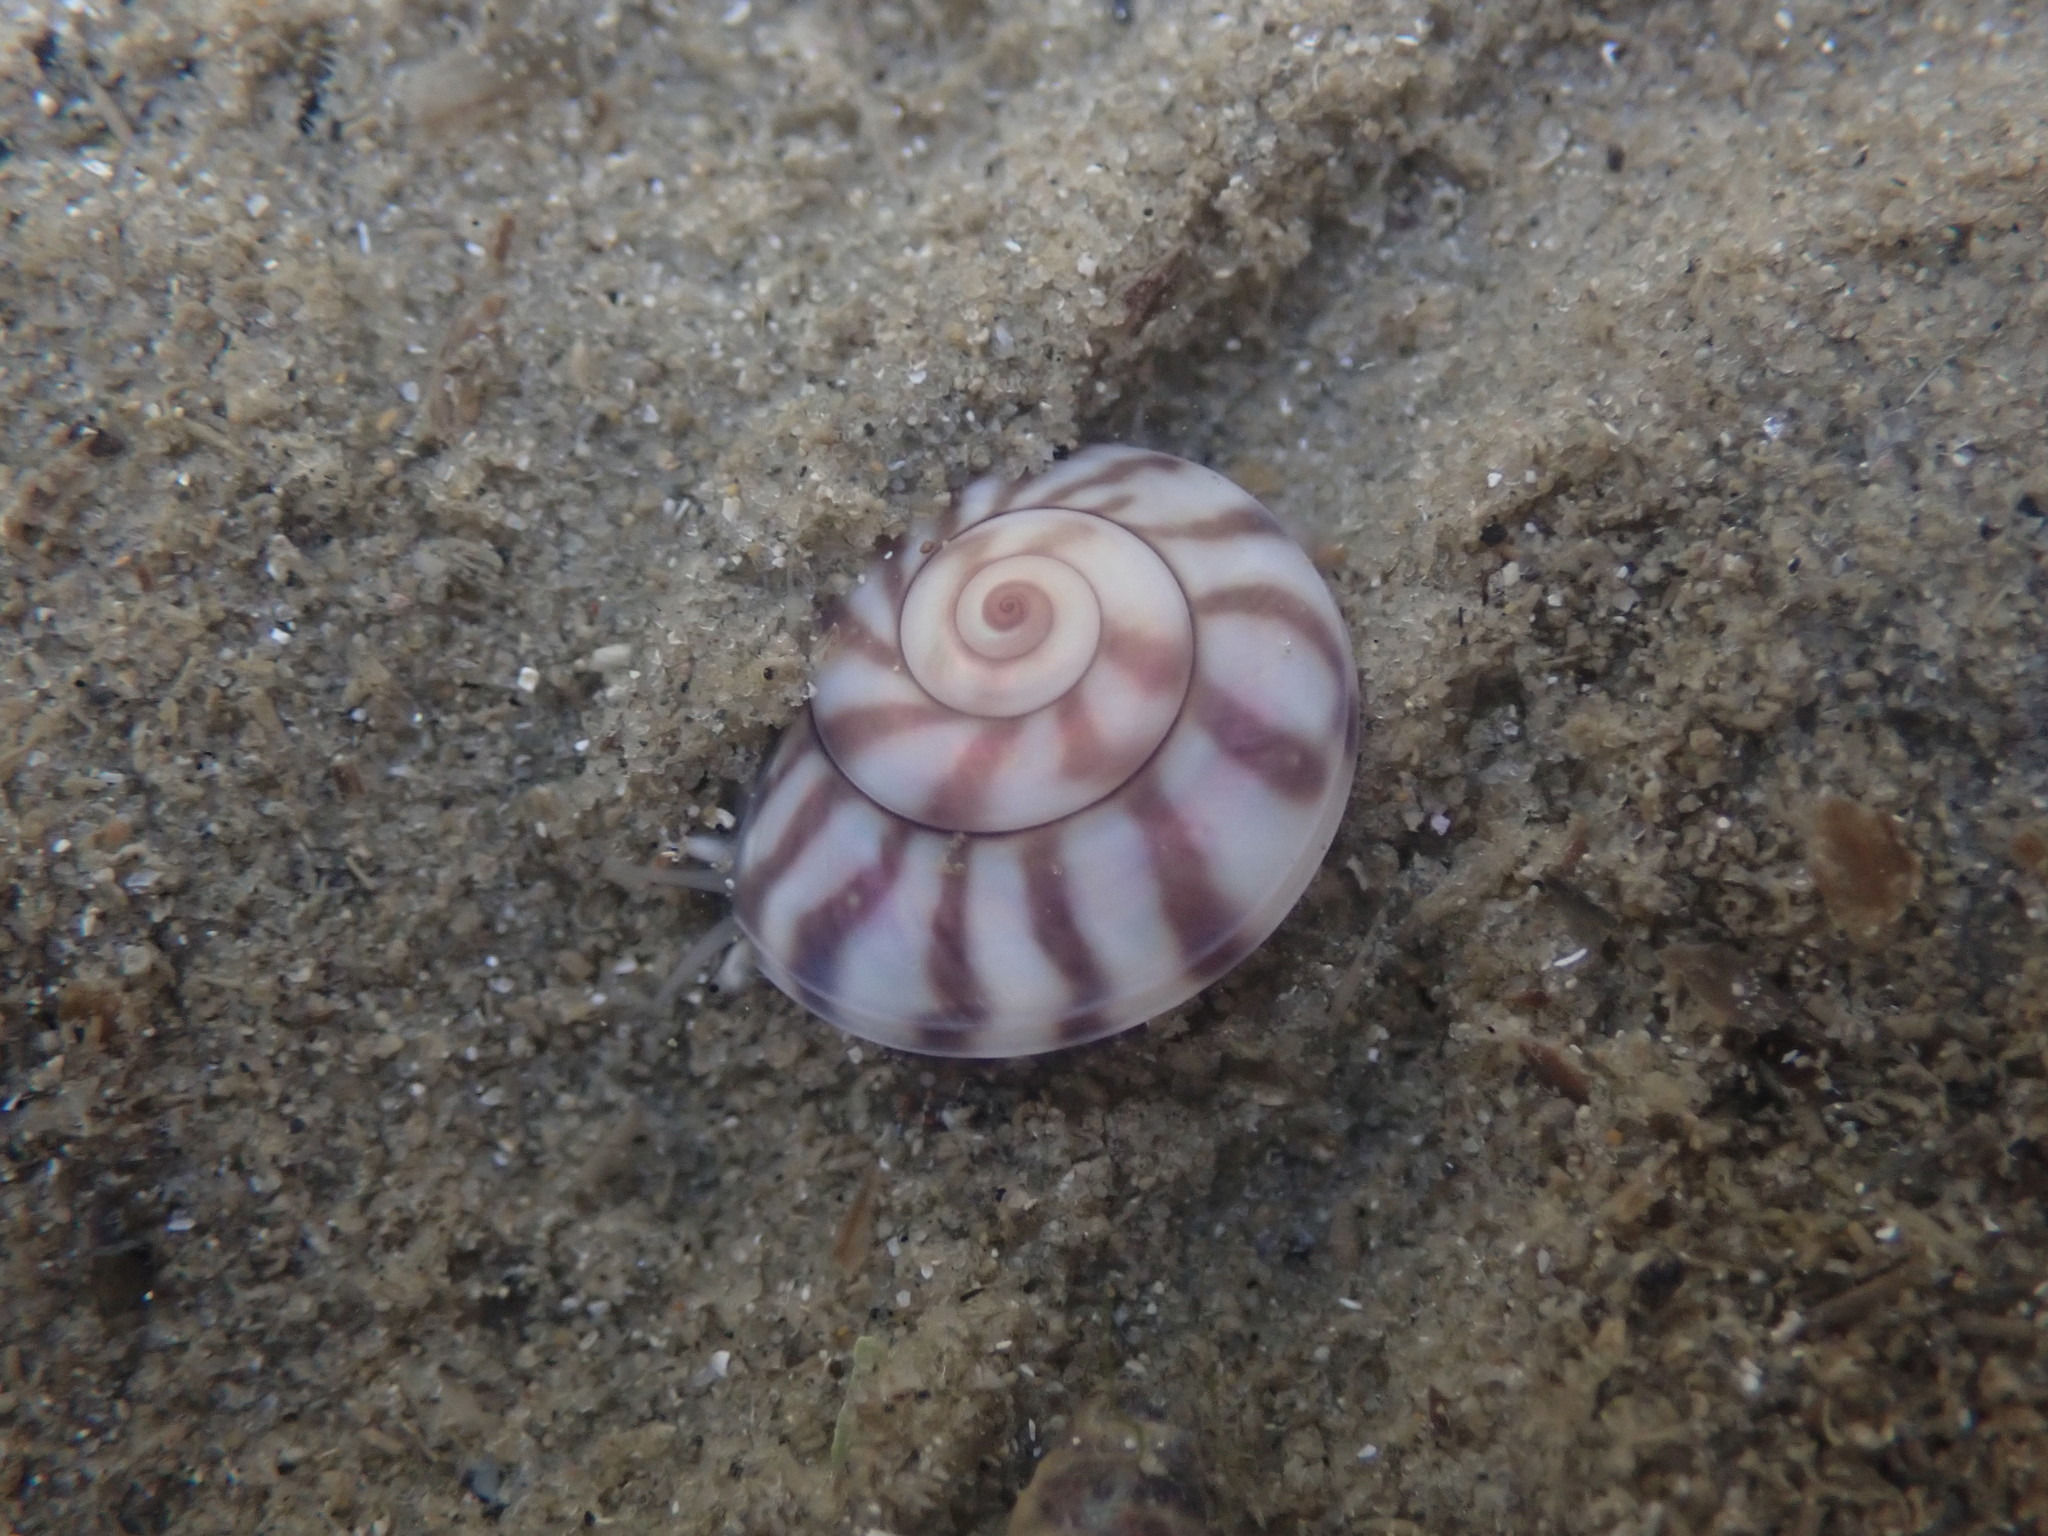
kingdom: Animalia
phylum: Mollusca
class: Gastropoda
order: Trochida
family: Trochidae
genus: Zethalia
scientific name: Zethalia zelandica
